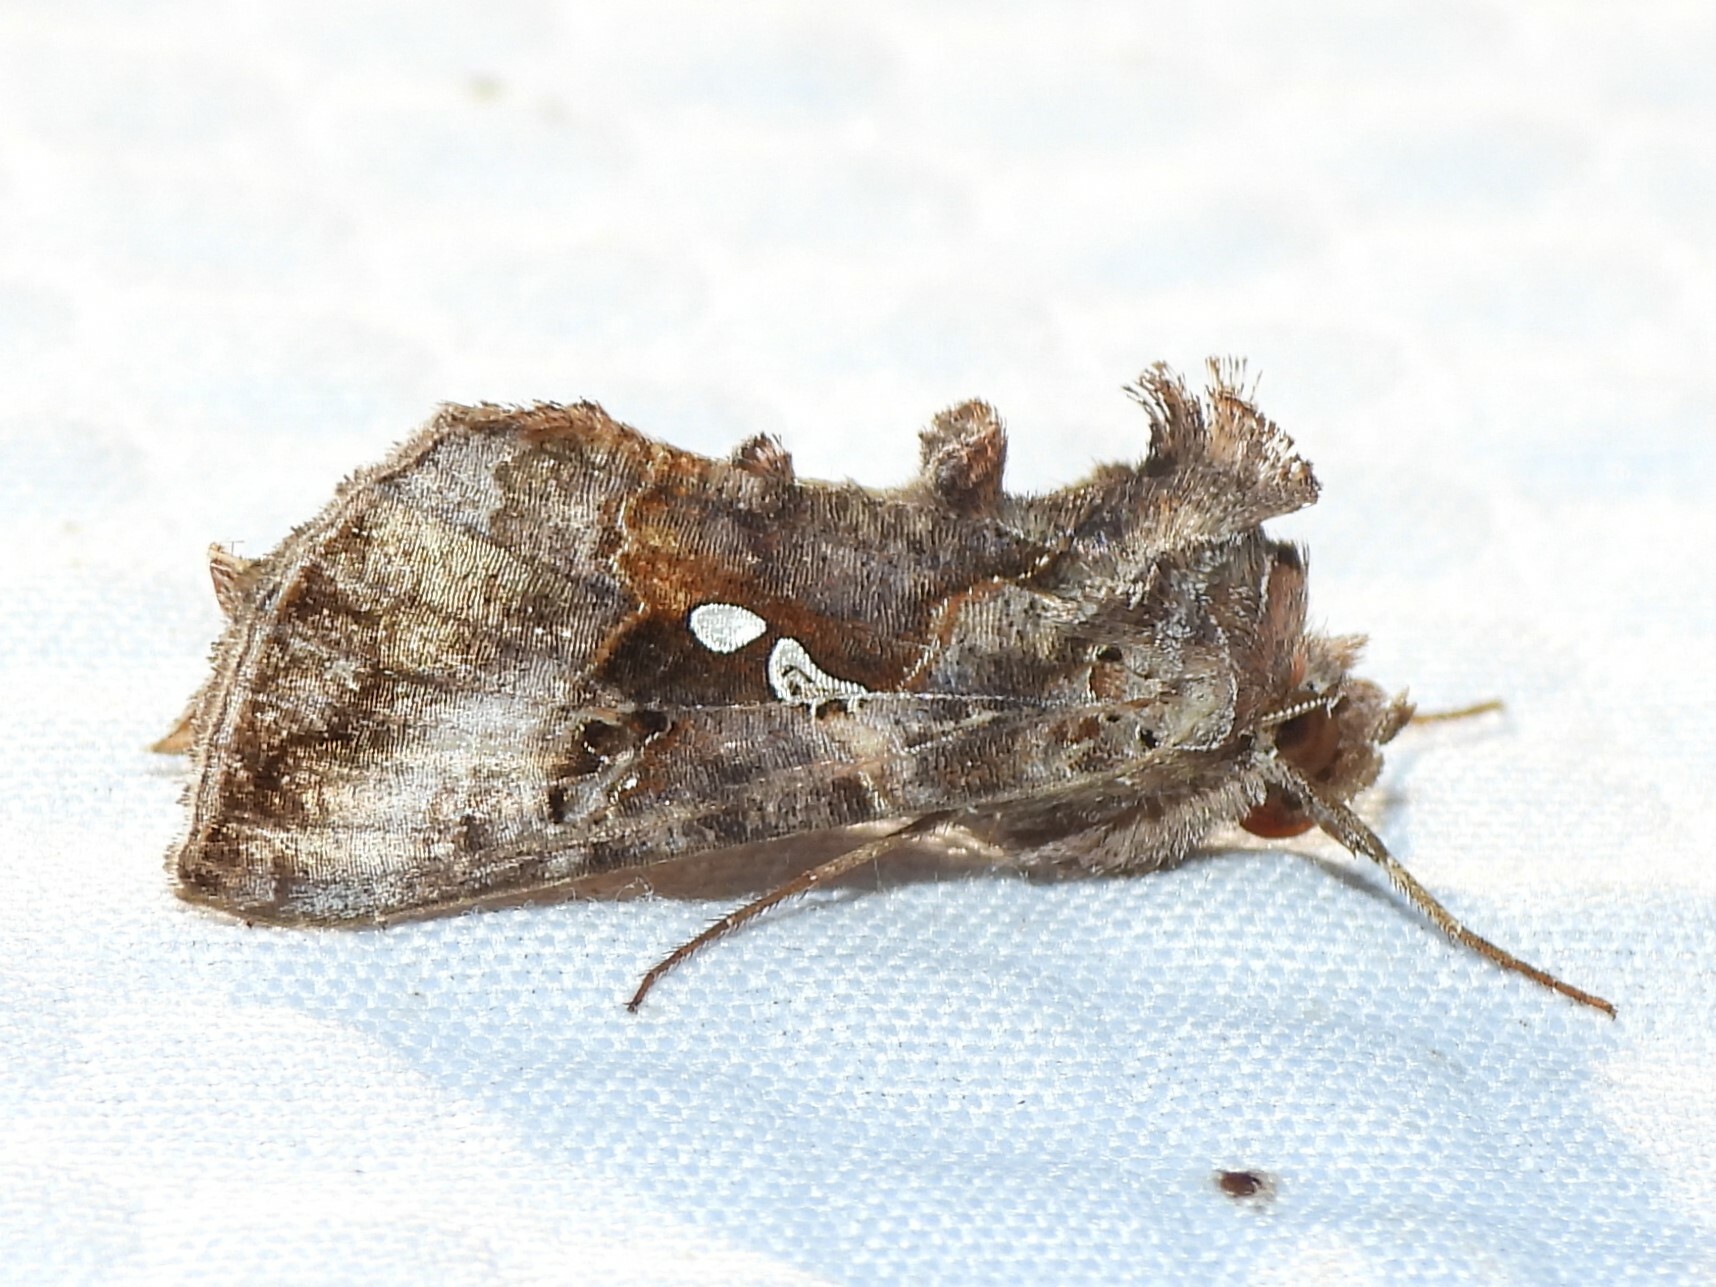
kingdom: Animalia
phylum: Arthropoda
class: Insecta
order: Lepidoptera
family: Noctuidae
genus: Autographa
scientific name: Autographa precationis
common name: Common looper moth
